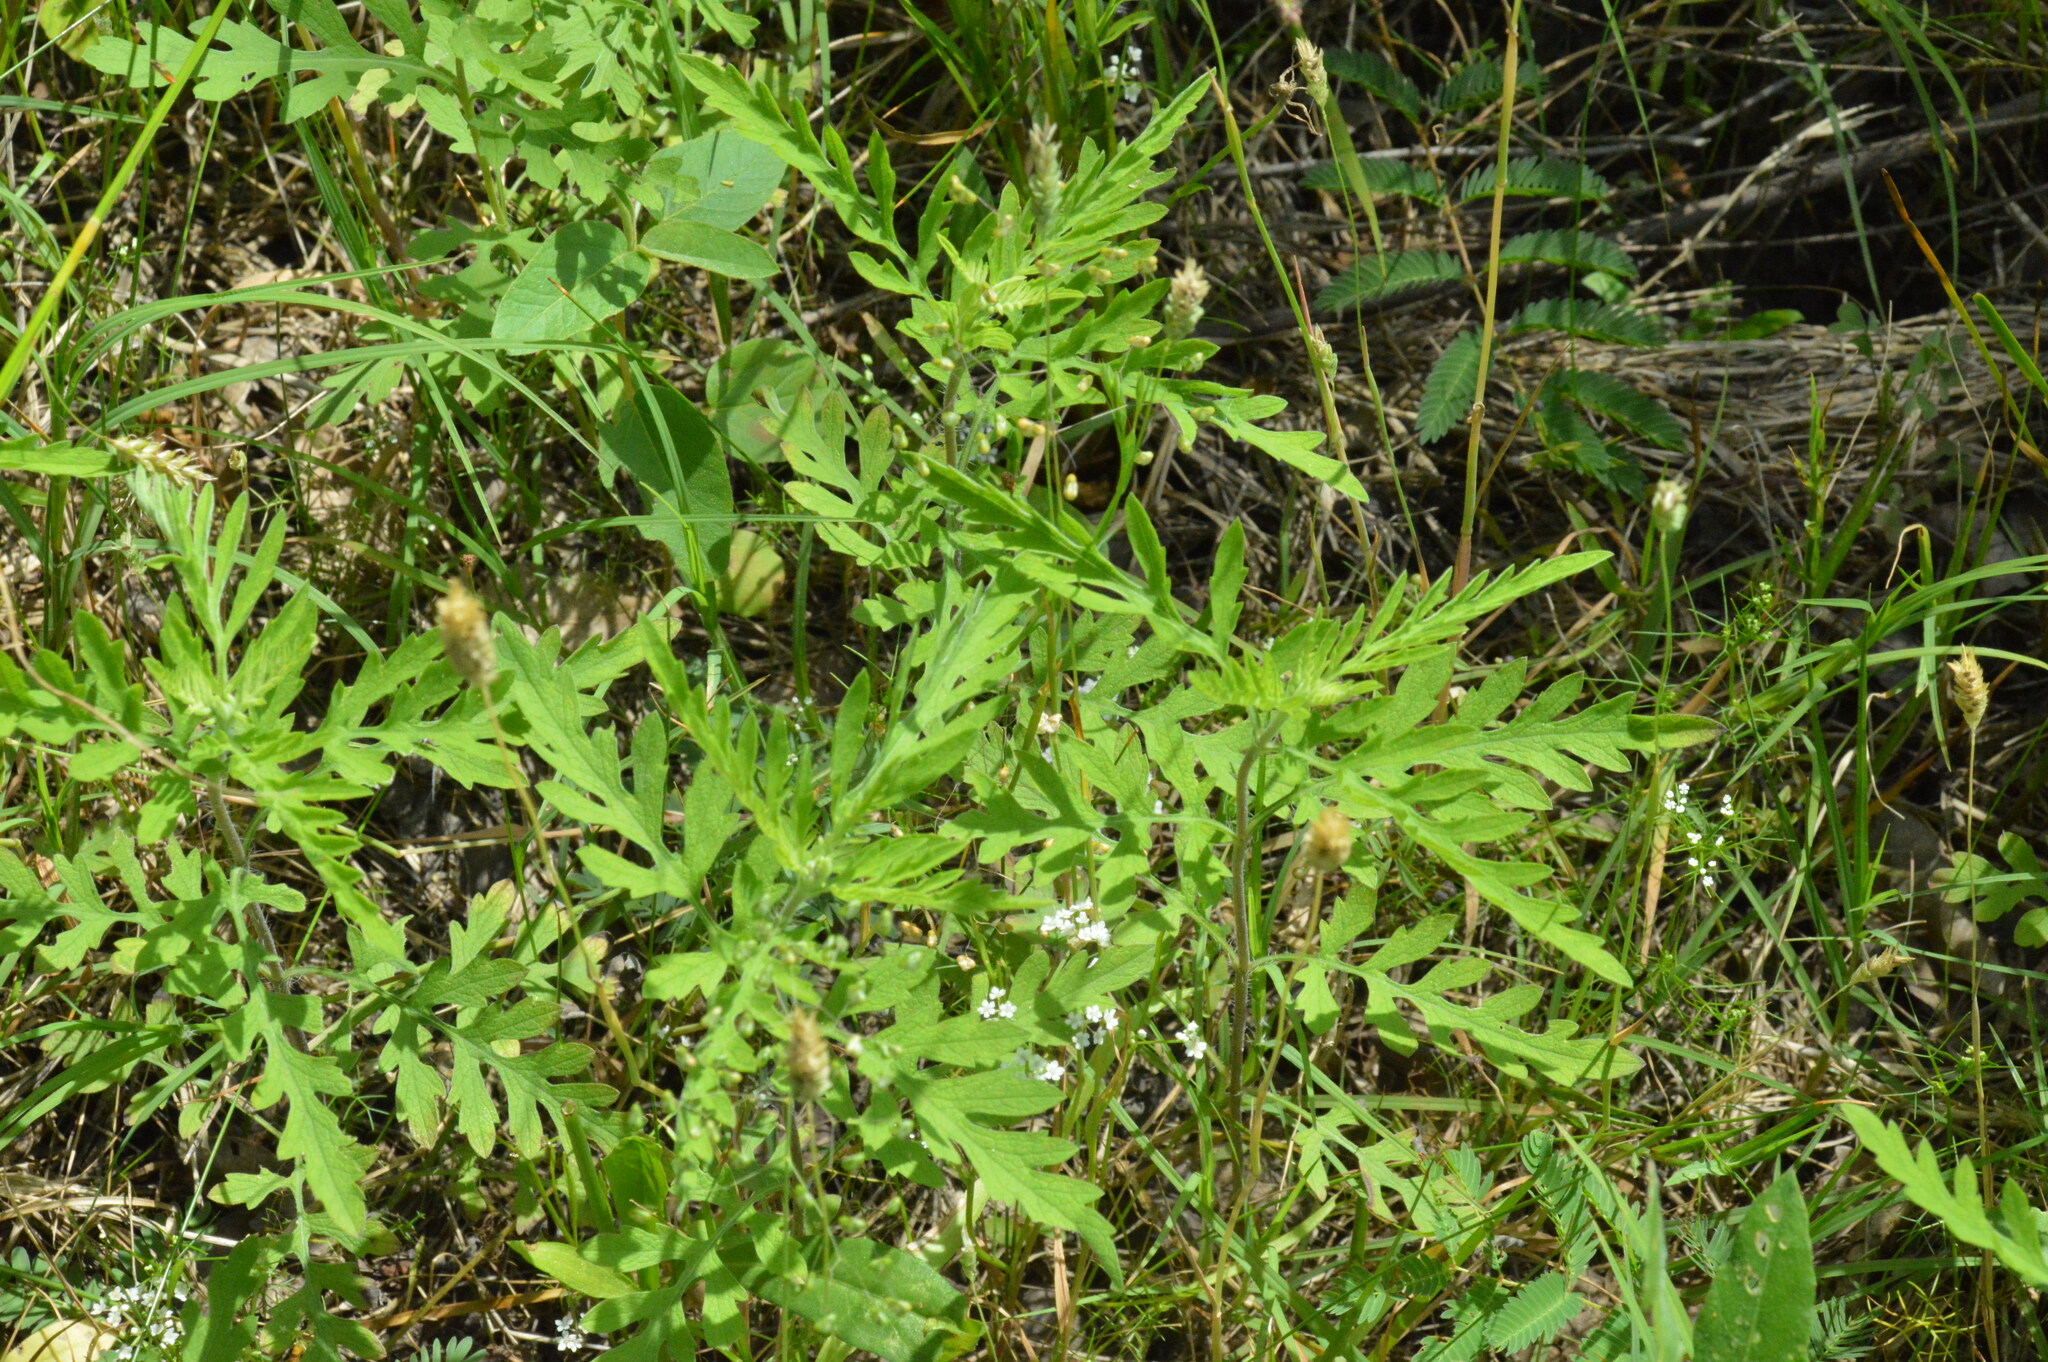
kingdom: Plantae
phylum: Tracheophyta
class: Magnoliopsida
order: Asterales
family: Asteraceae
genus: Ambrosia
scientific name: Ambrosia psilostachya
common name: Perennial ragweed
